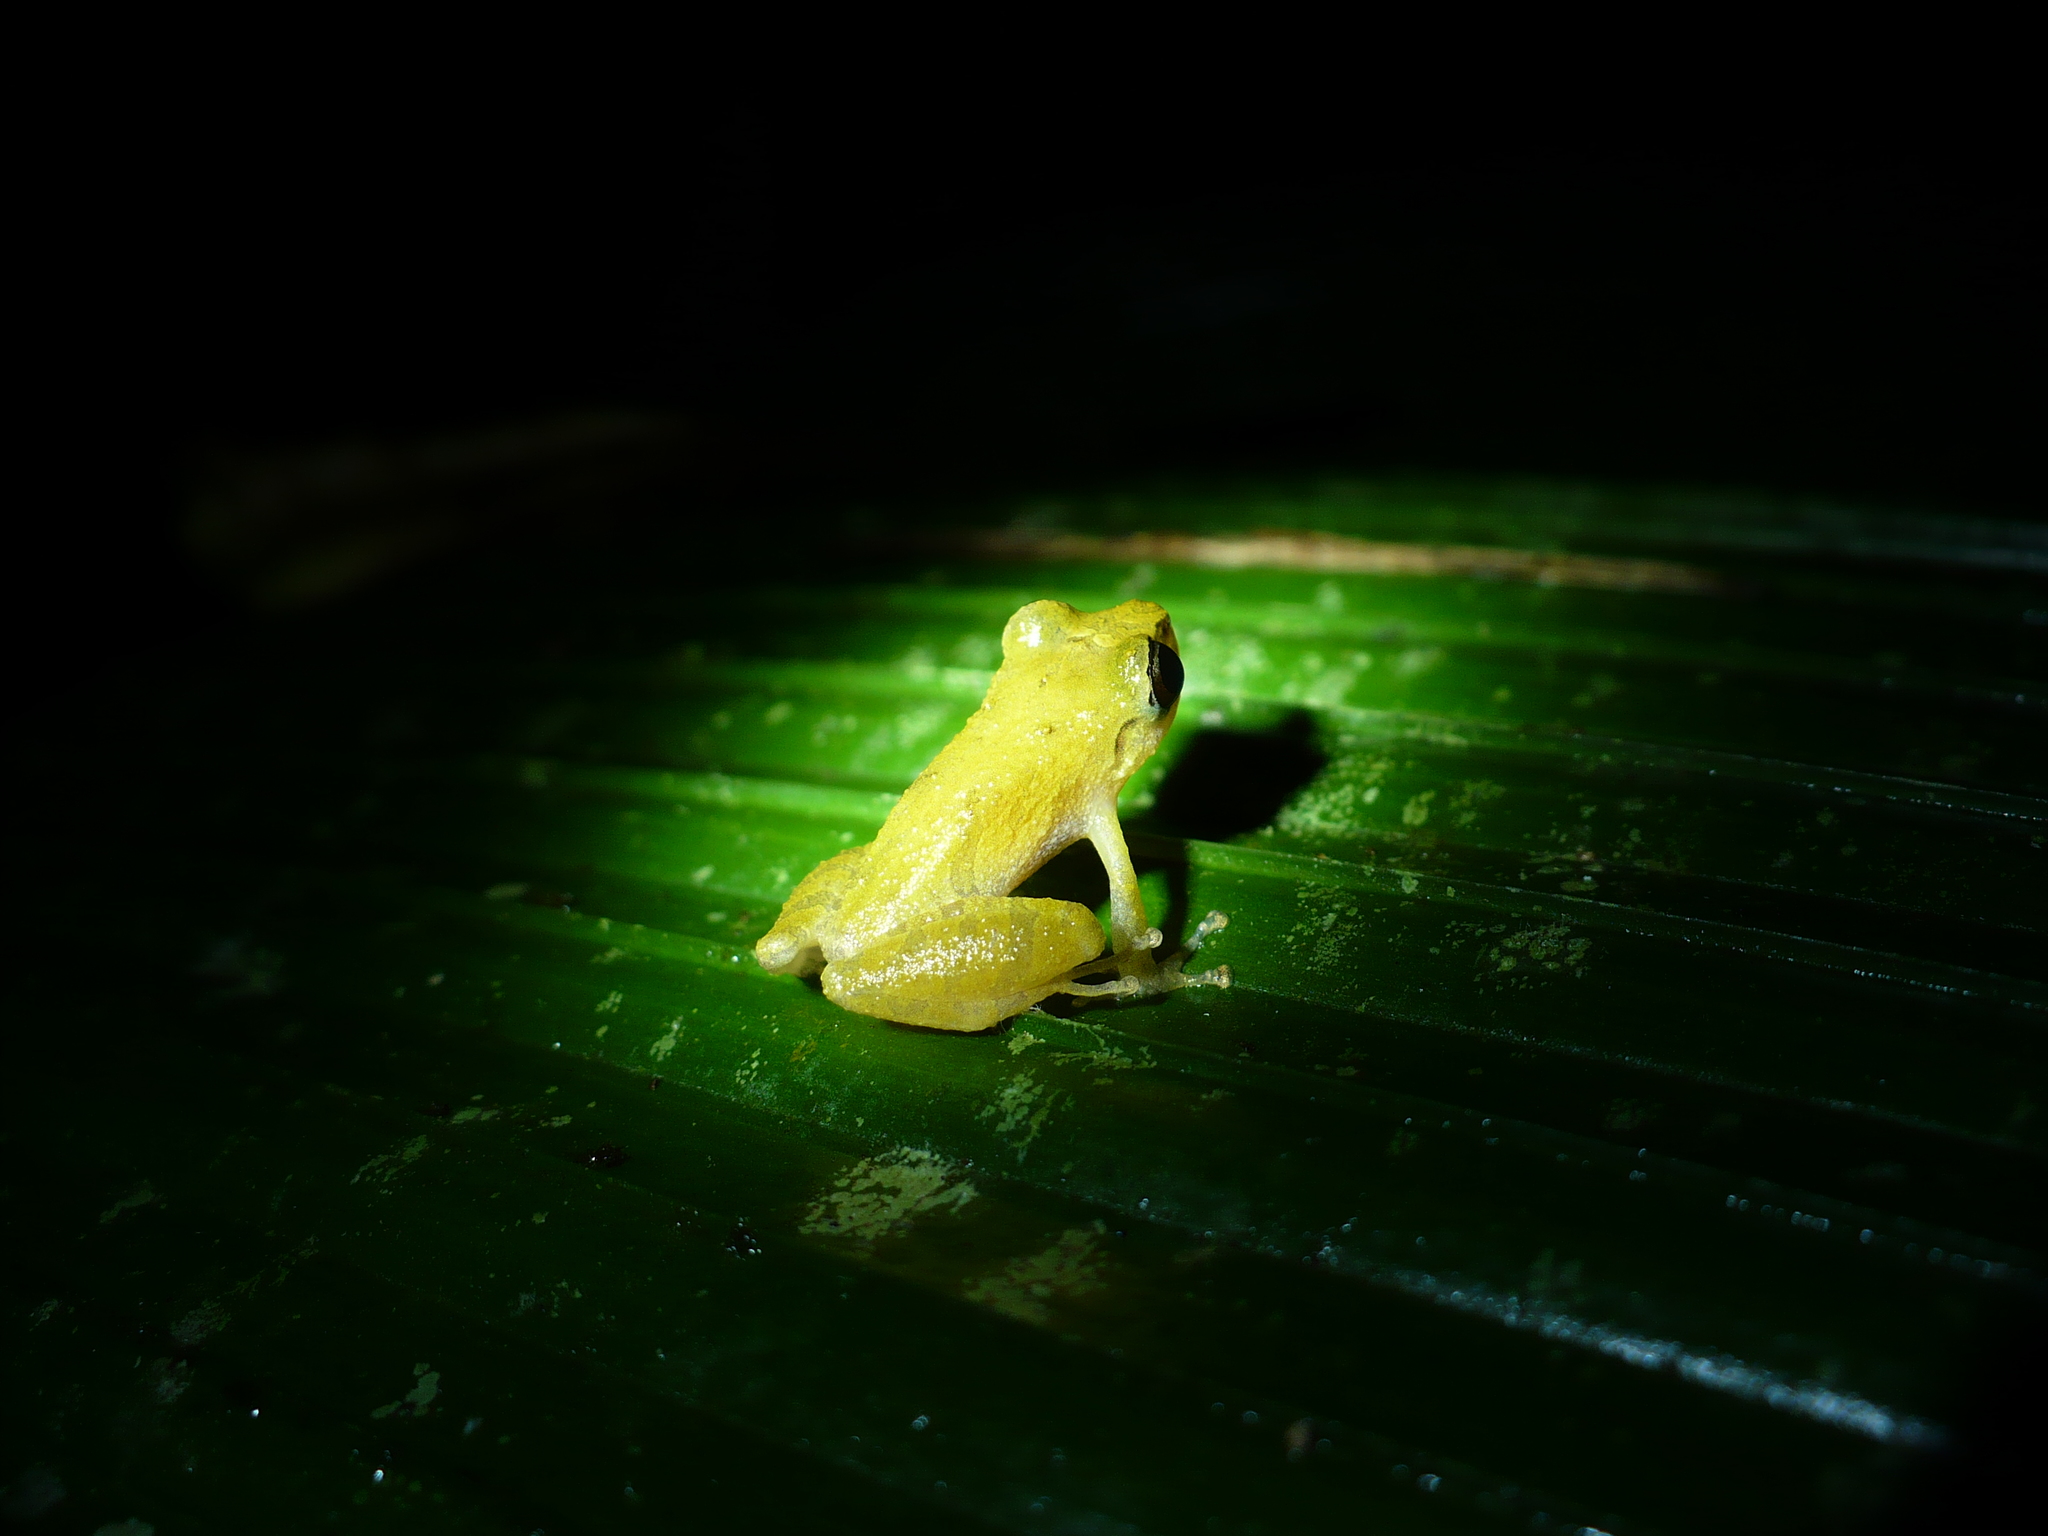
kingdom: Animalia
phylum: Chordata
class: Amphibia
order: Anura
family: Craugastoridae
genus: Pristimantis
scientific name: Pristimantis ridens
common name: Rio san juan robber frog
